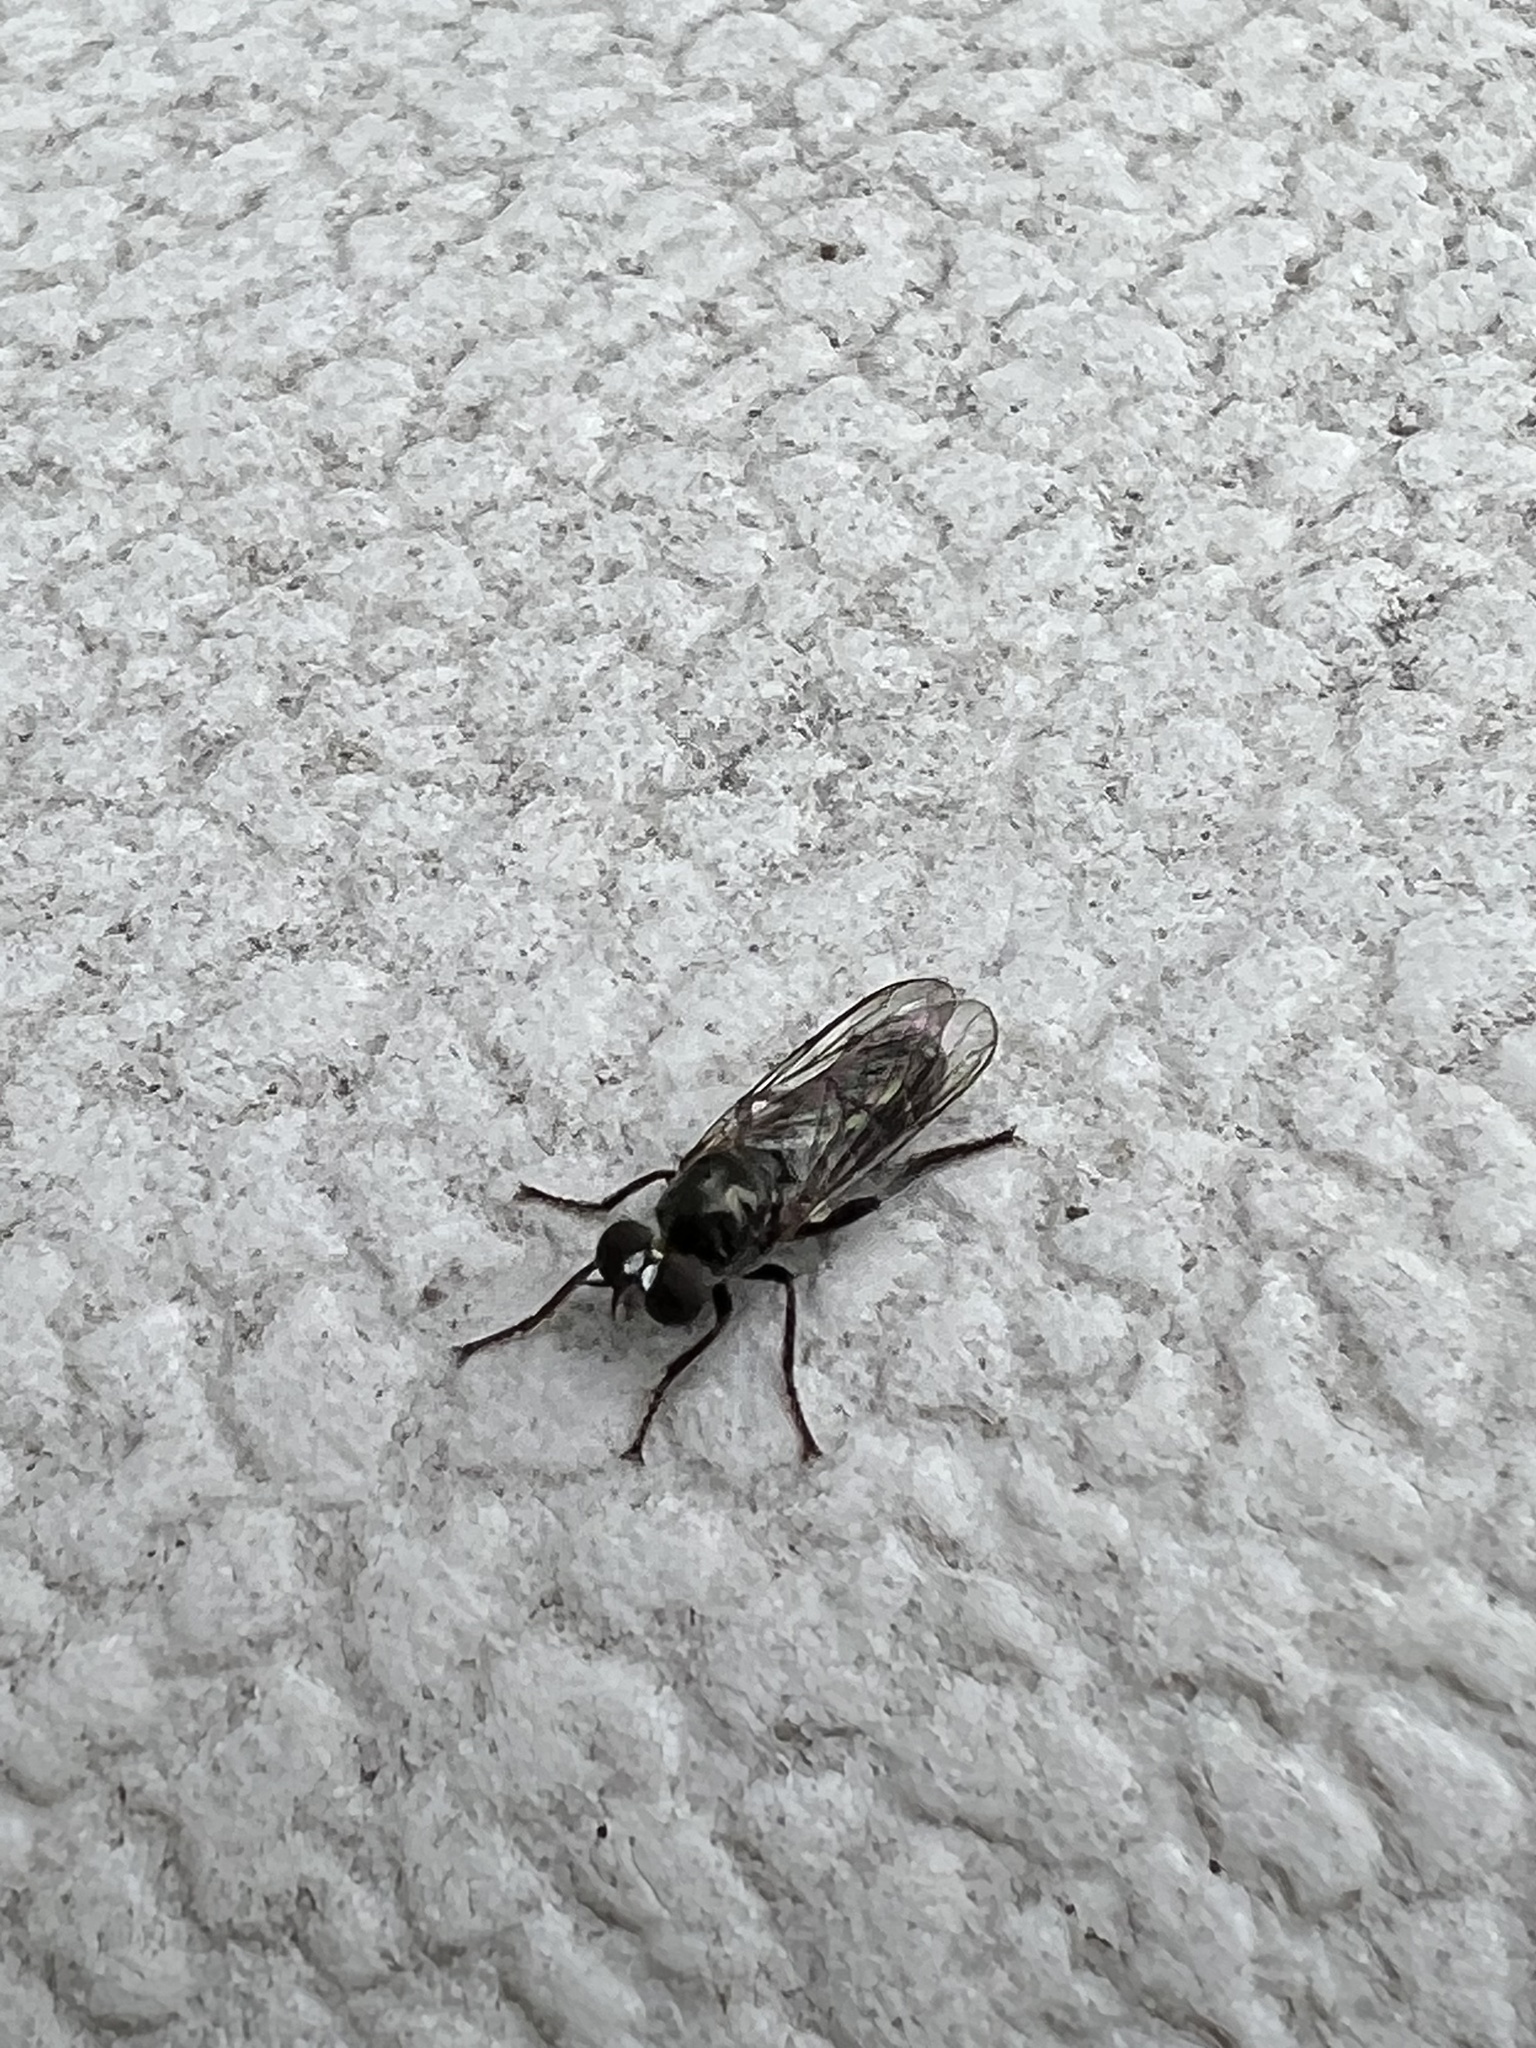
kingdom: Animalia
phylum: Arthropoda
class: Insecta
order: Diptera
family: Asilidae
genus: Atomosia
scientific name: Atomosia puella
